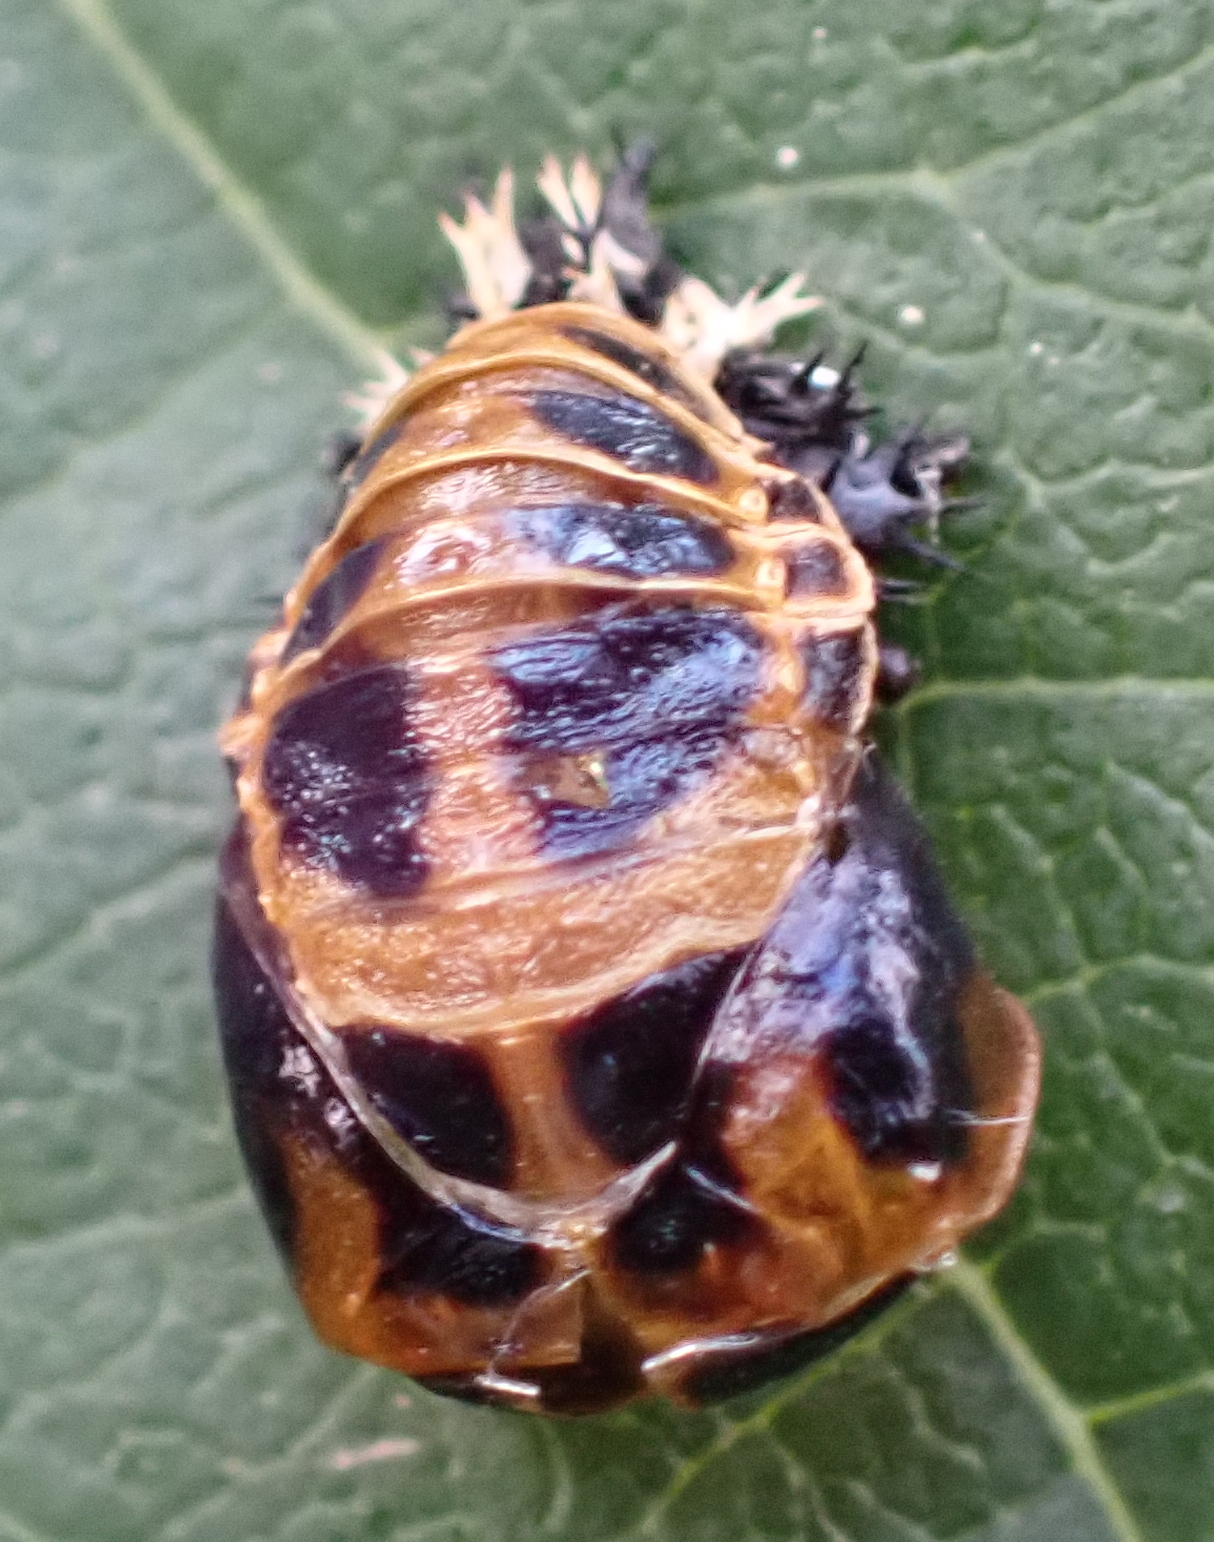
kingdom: Animalia
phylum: Arthropoda
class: Insecta
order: Coleoptera
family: Coccinellidae
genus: Harmonia
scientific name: Harmonia axyridis
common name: Harlequin ladybird
